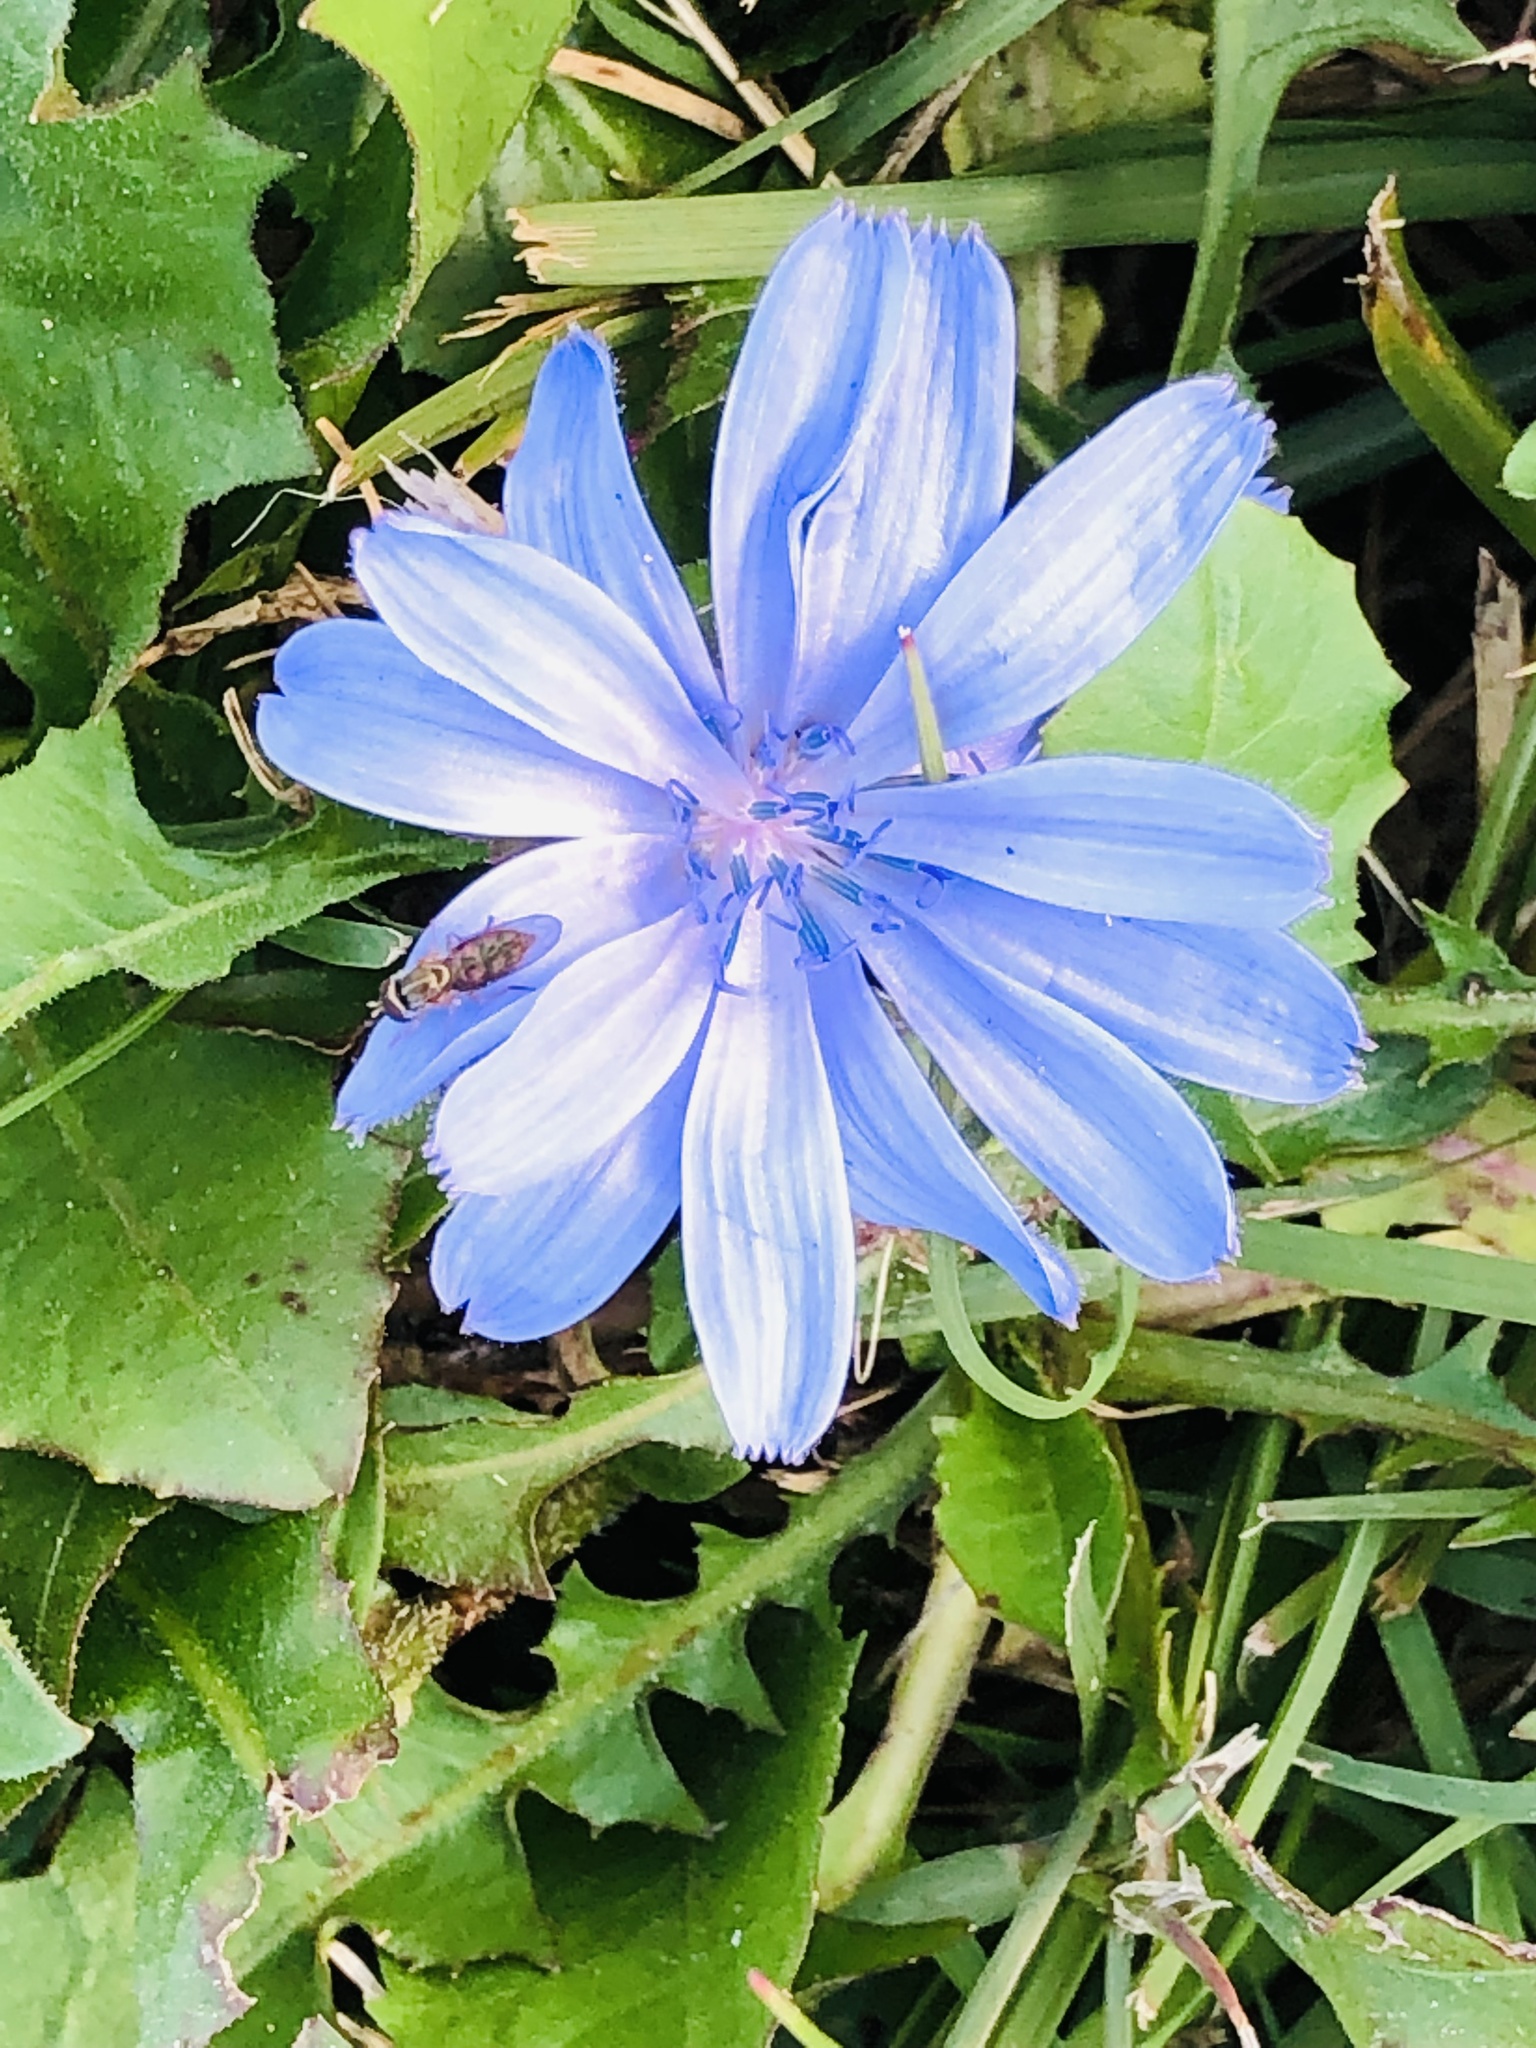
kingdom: Plantae
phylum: Tracheophyta
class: Magnoliopsida
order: Asterales
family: Asteraceae
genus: Cichorium
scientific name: Cichorium intybus
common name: Chicory
